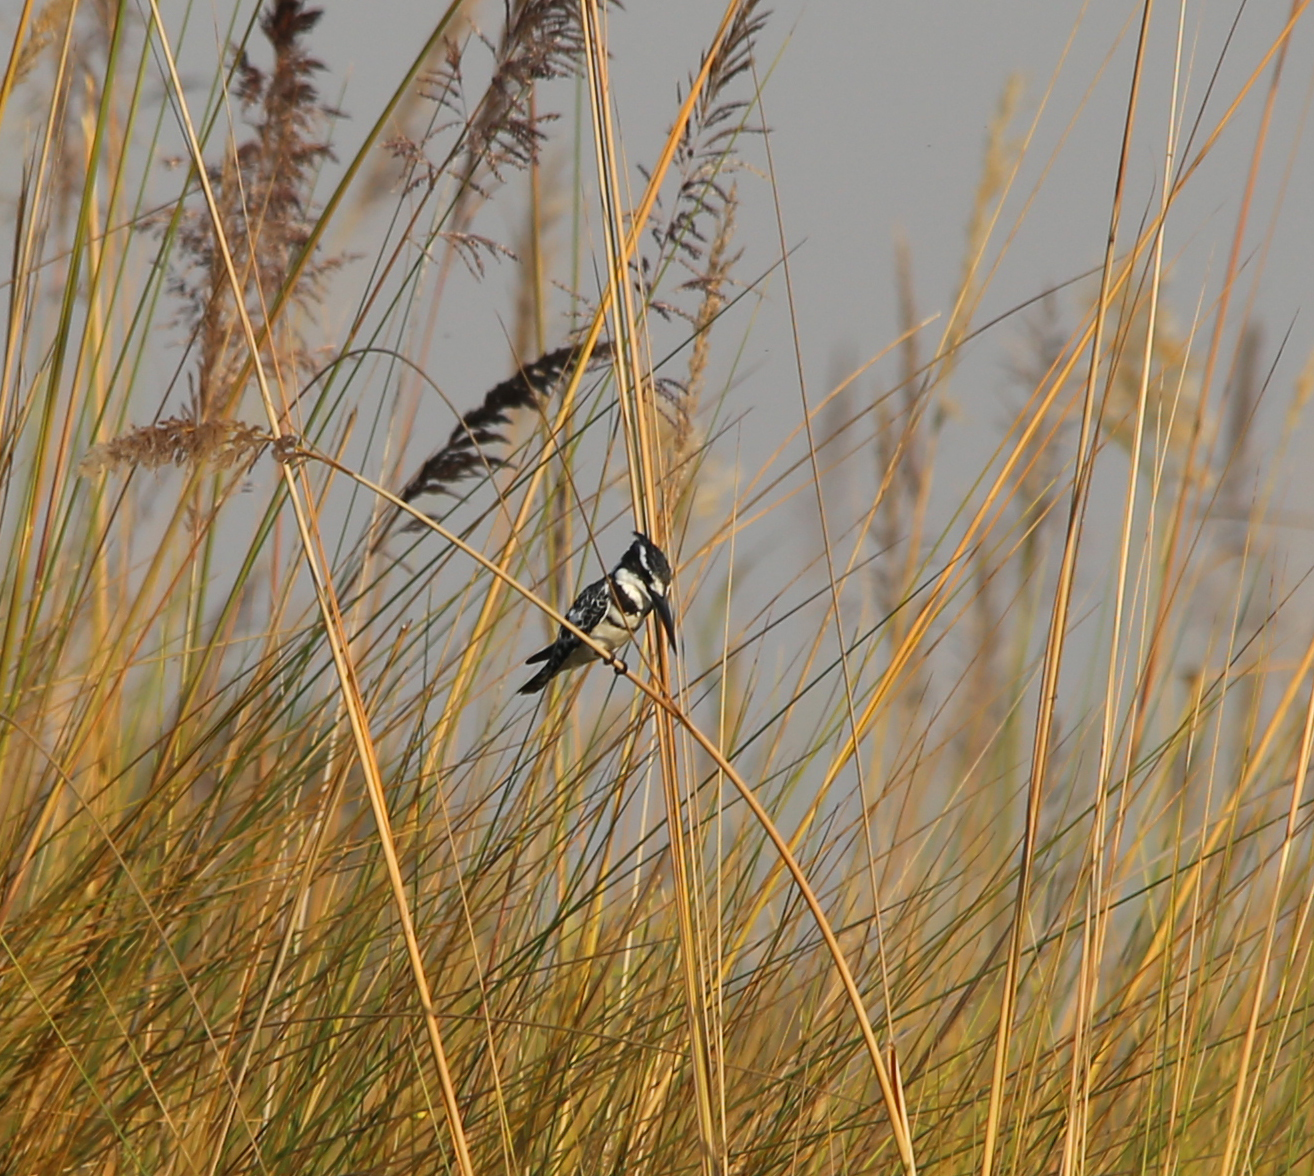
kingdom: Animalia
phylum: Chordata
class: Aves
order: Coraciiformes
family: Alcedinidae
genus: Ceryle
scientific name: Ceryle rudis
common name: Pied kingfisher
